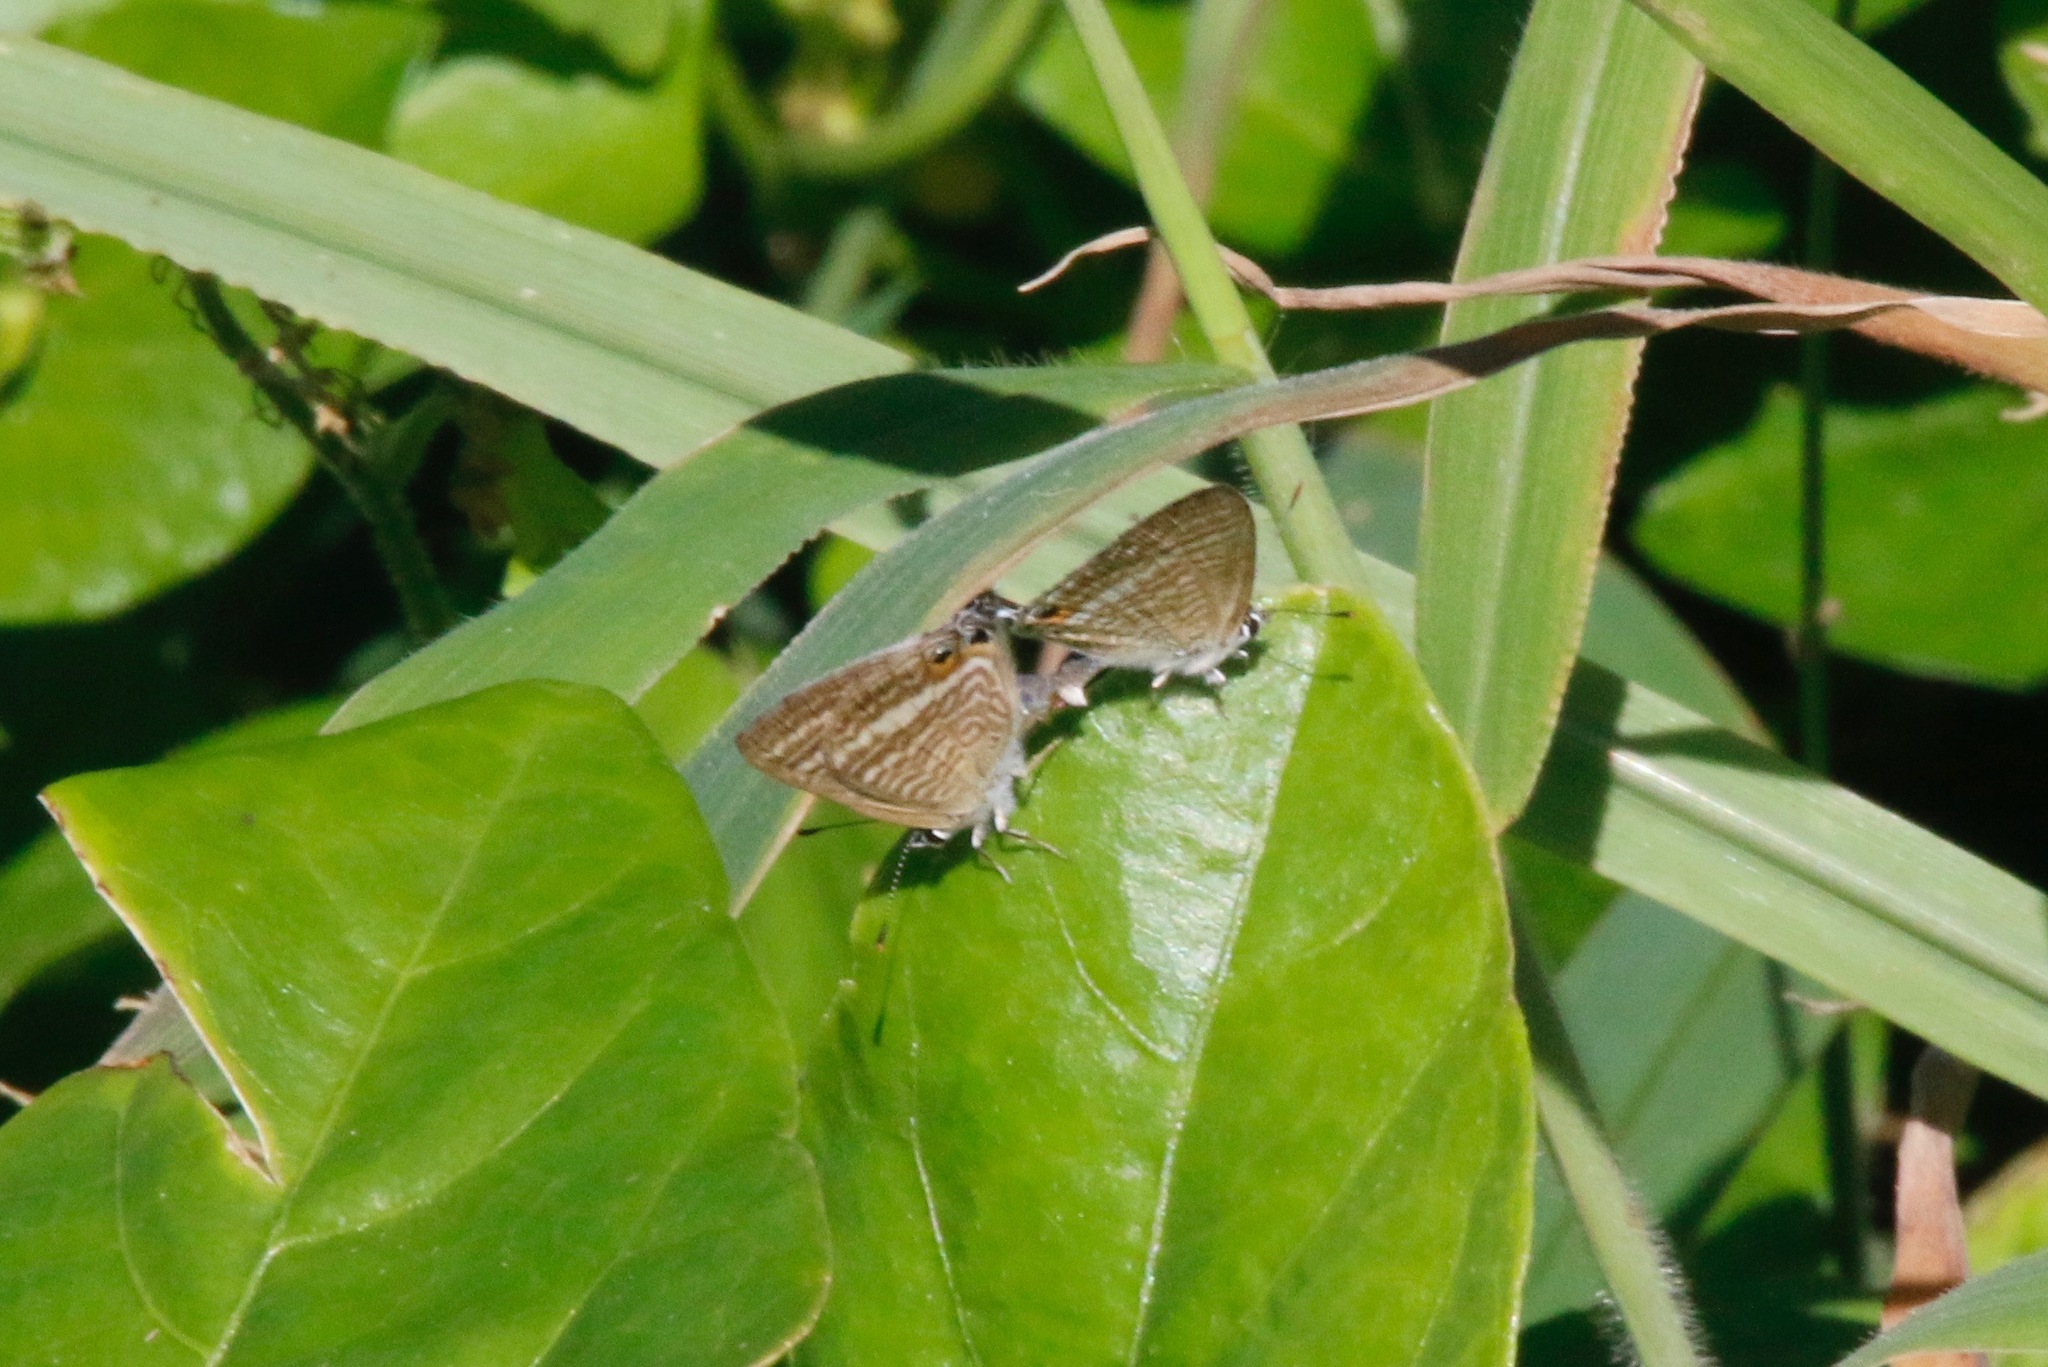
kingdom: Animalia
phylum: Arthropoda
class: Insecta
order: Lepidoptera
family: Lycaenidae
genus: Lampides
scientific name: Lampides boeticus
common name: Long-tailed blue
